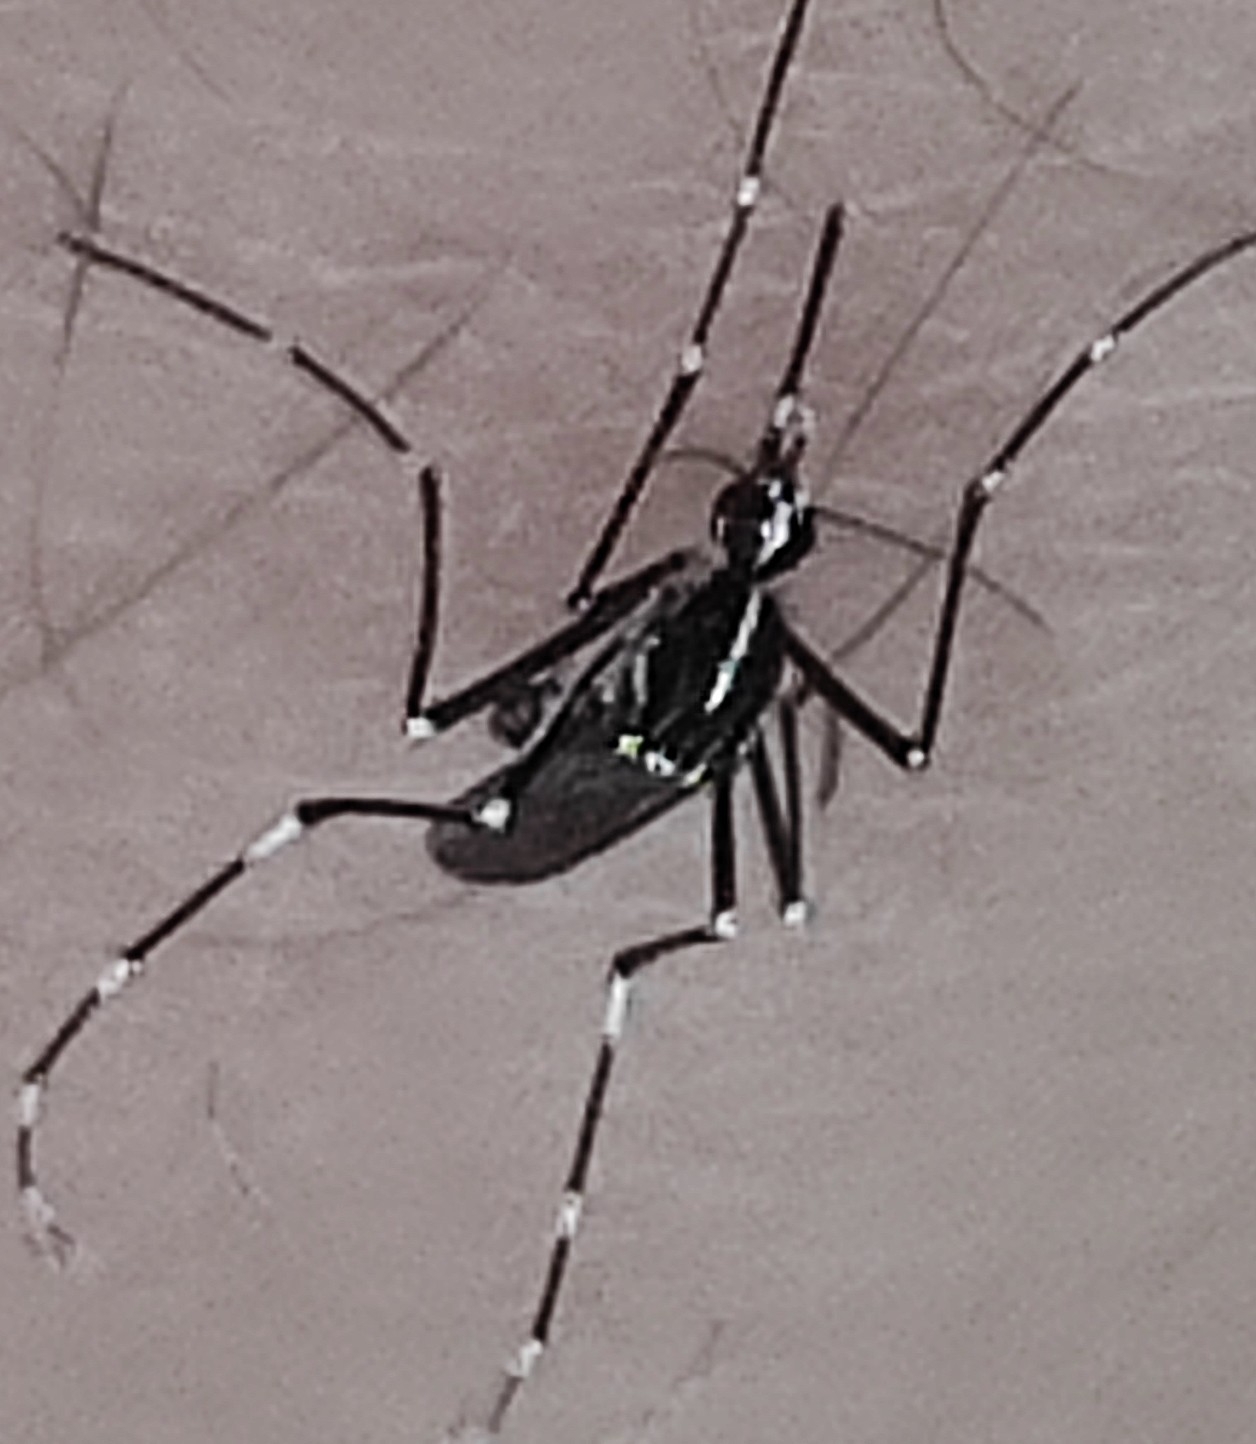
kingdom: Animalia
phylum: Arthropoda
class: Insecta
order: Diptera
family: Culicidae
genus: Aedes
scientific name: Aedes albopictus
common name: Tiger mosquito
